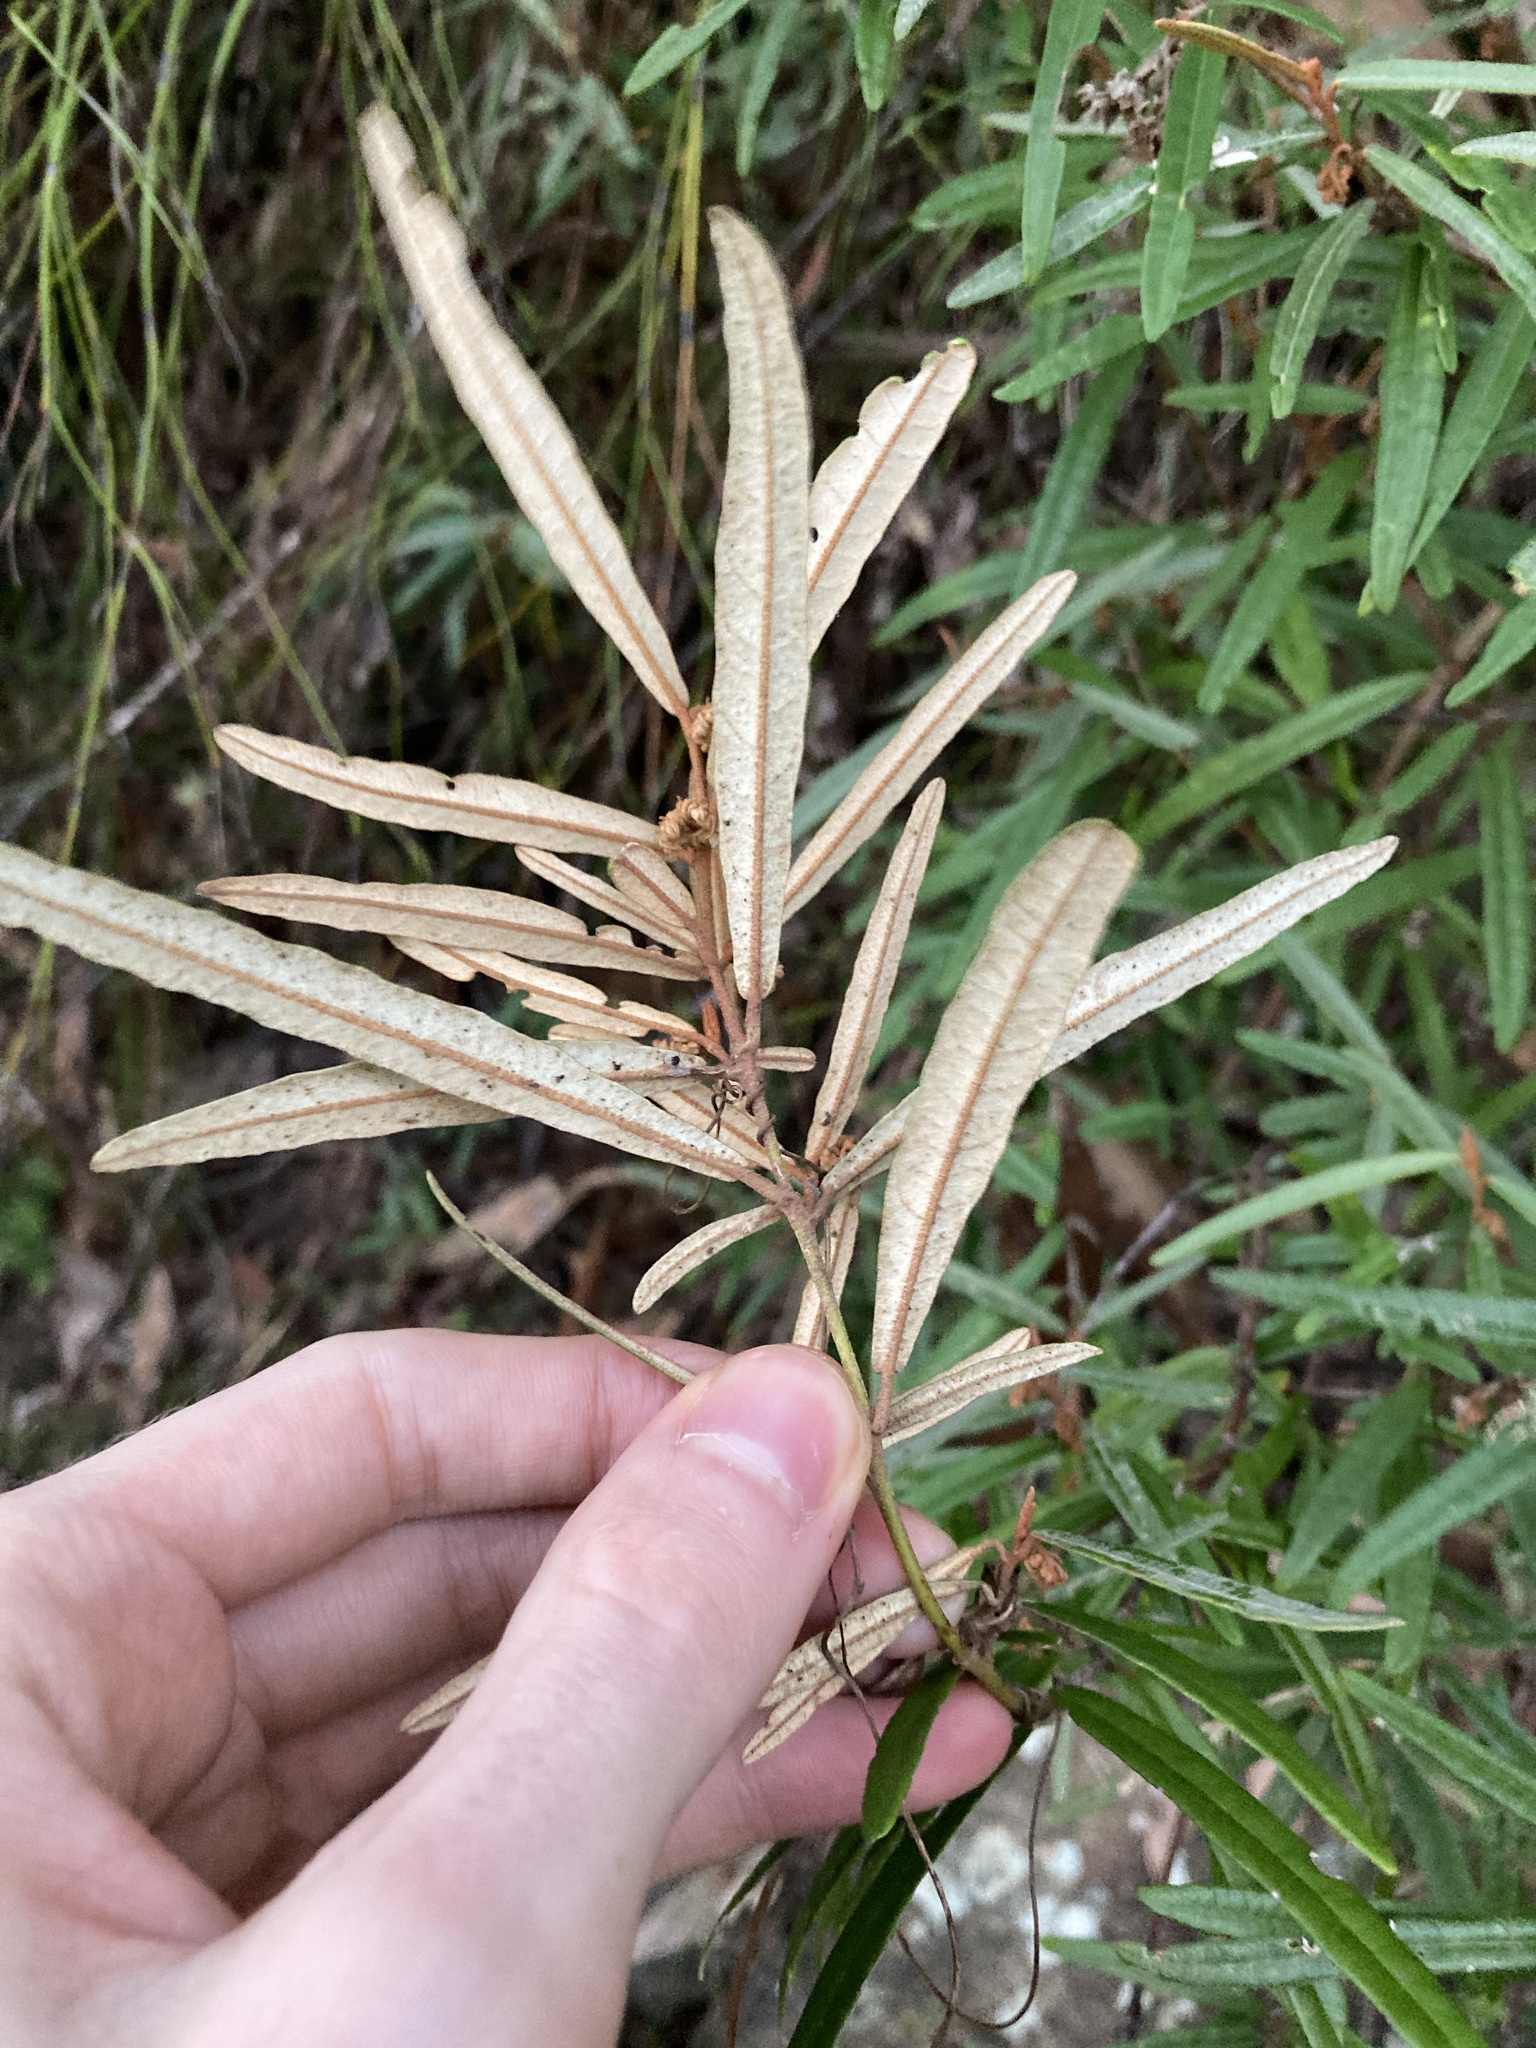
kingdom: Plantae
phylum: Tracheophyta
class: Magnoliopsida
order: Malvales
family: Malvaceae
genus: Lasiopetalum
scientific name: Lasiopetalum ferrugineum
